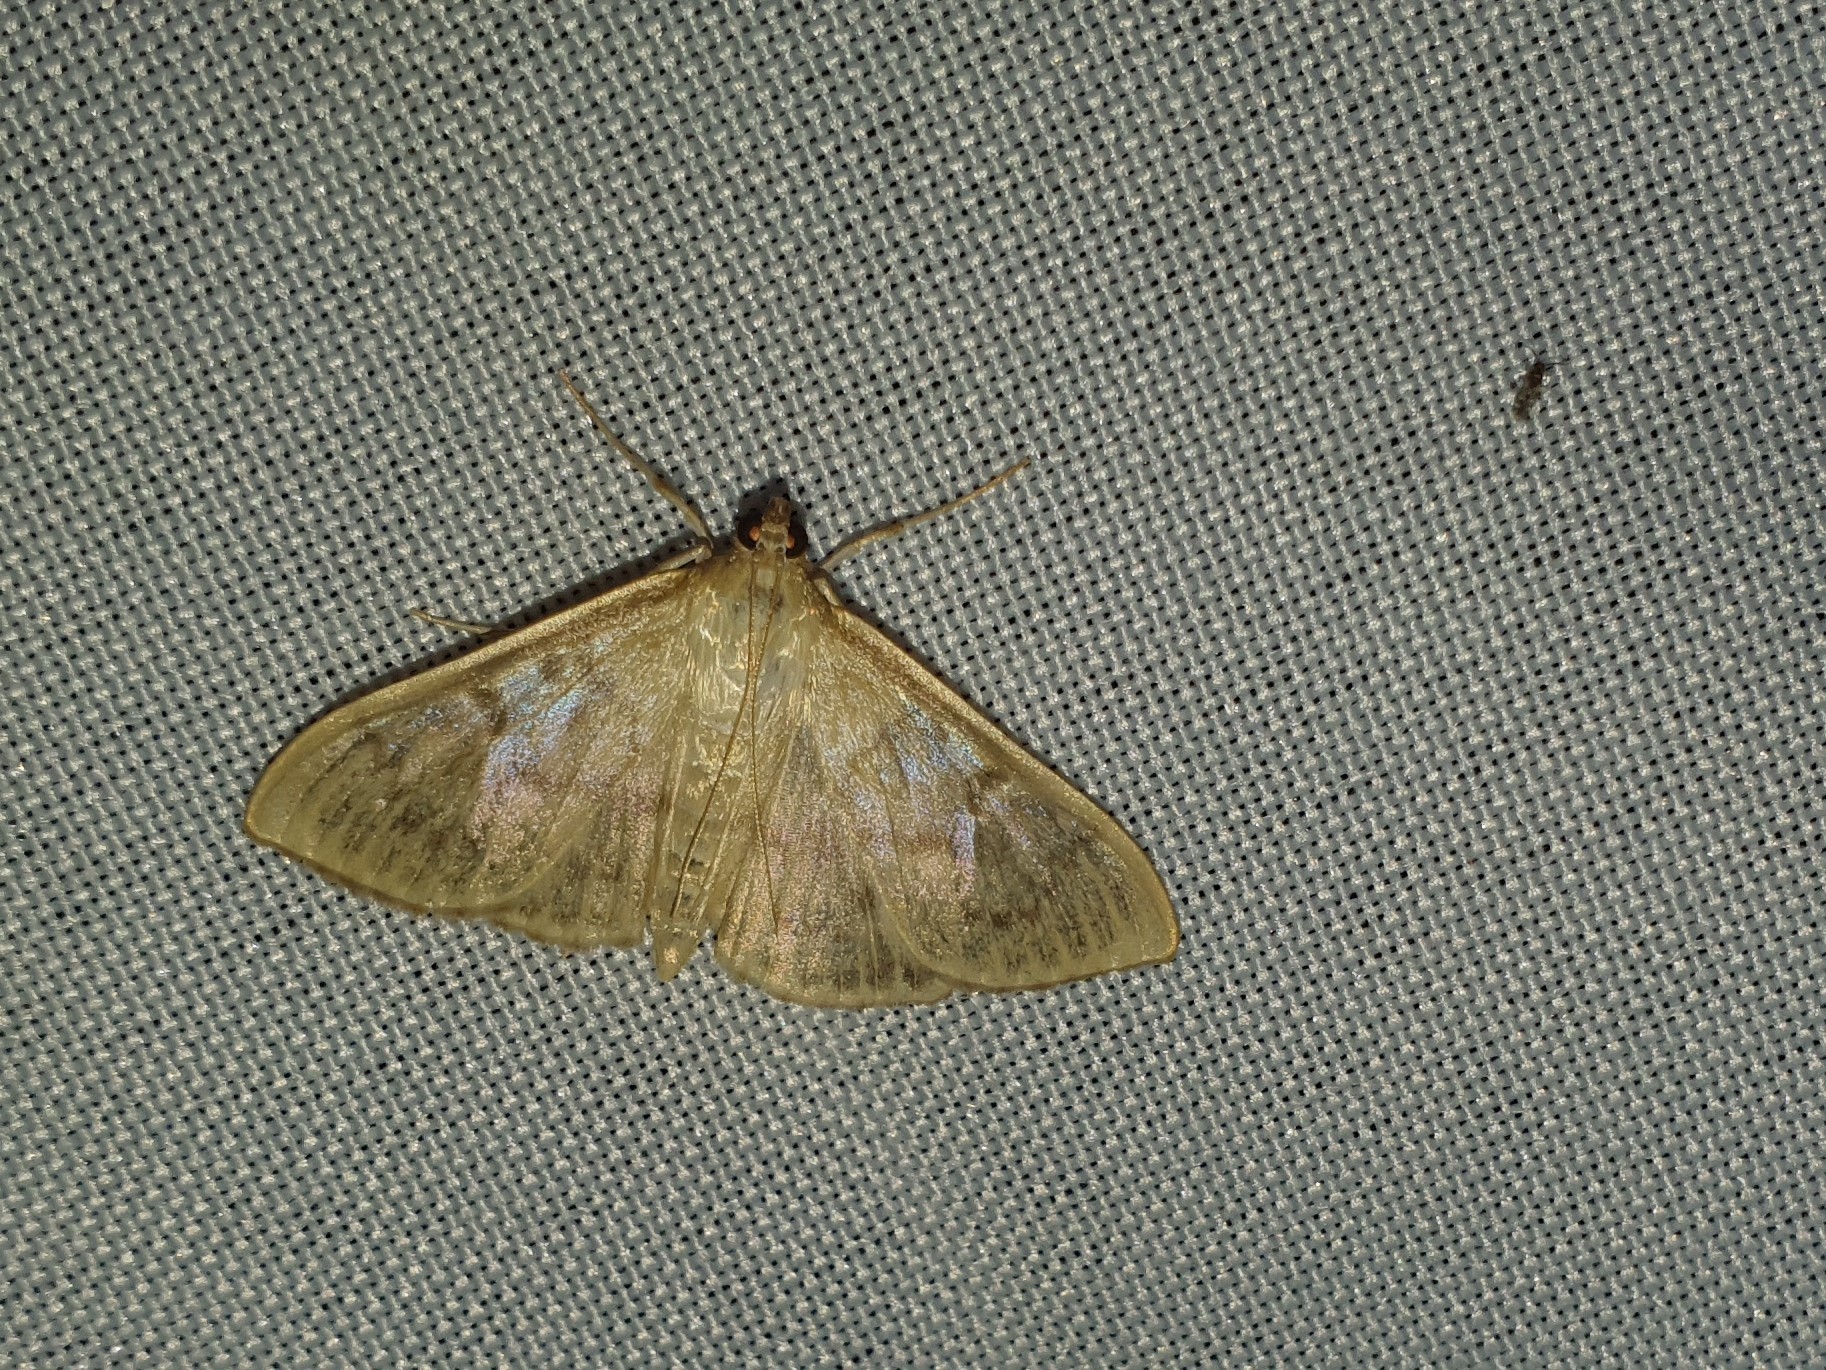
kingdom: Animalia
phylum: Arthropoda
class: Insecta
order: Lepidoptera
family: Crambidae
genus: Patania
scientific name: Patania ruralis
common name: Mother of pearl
